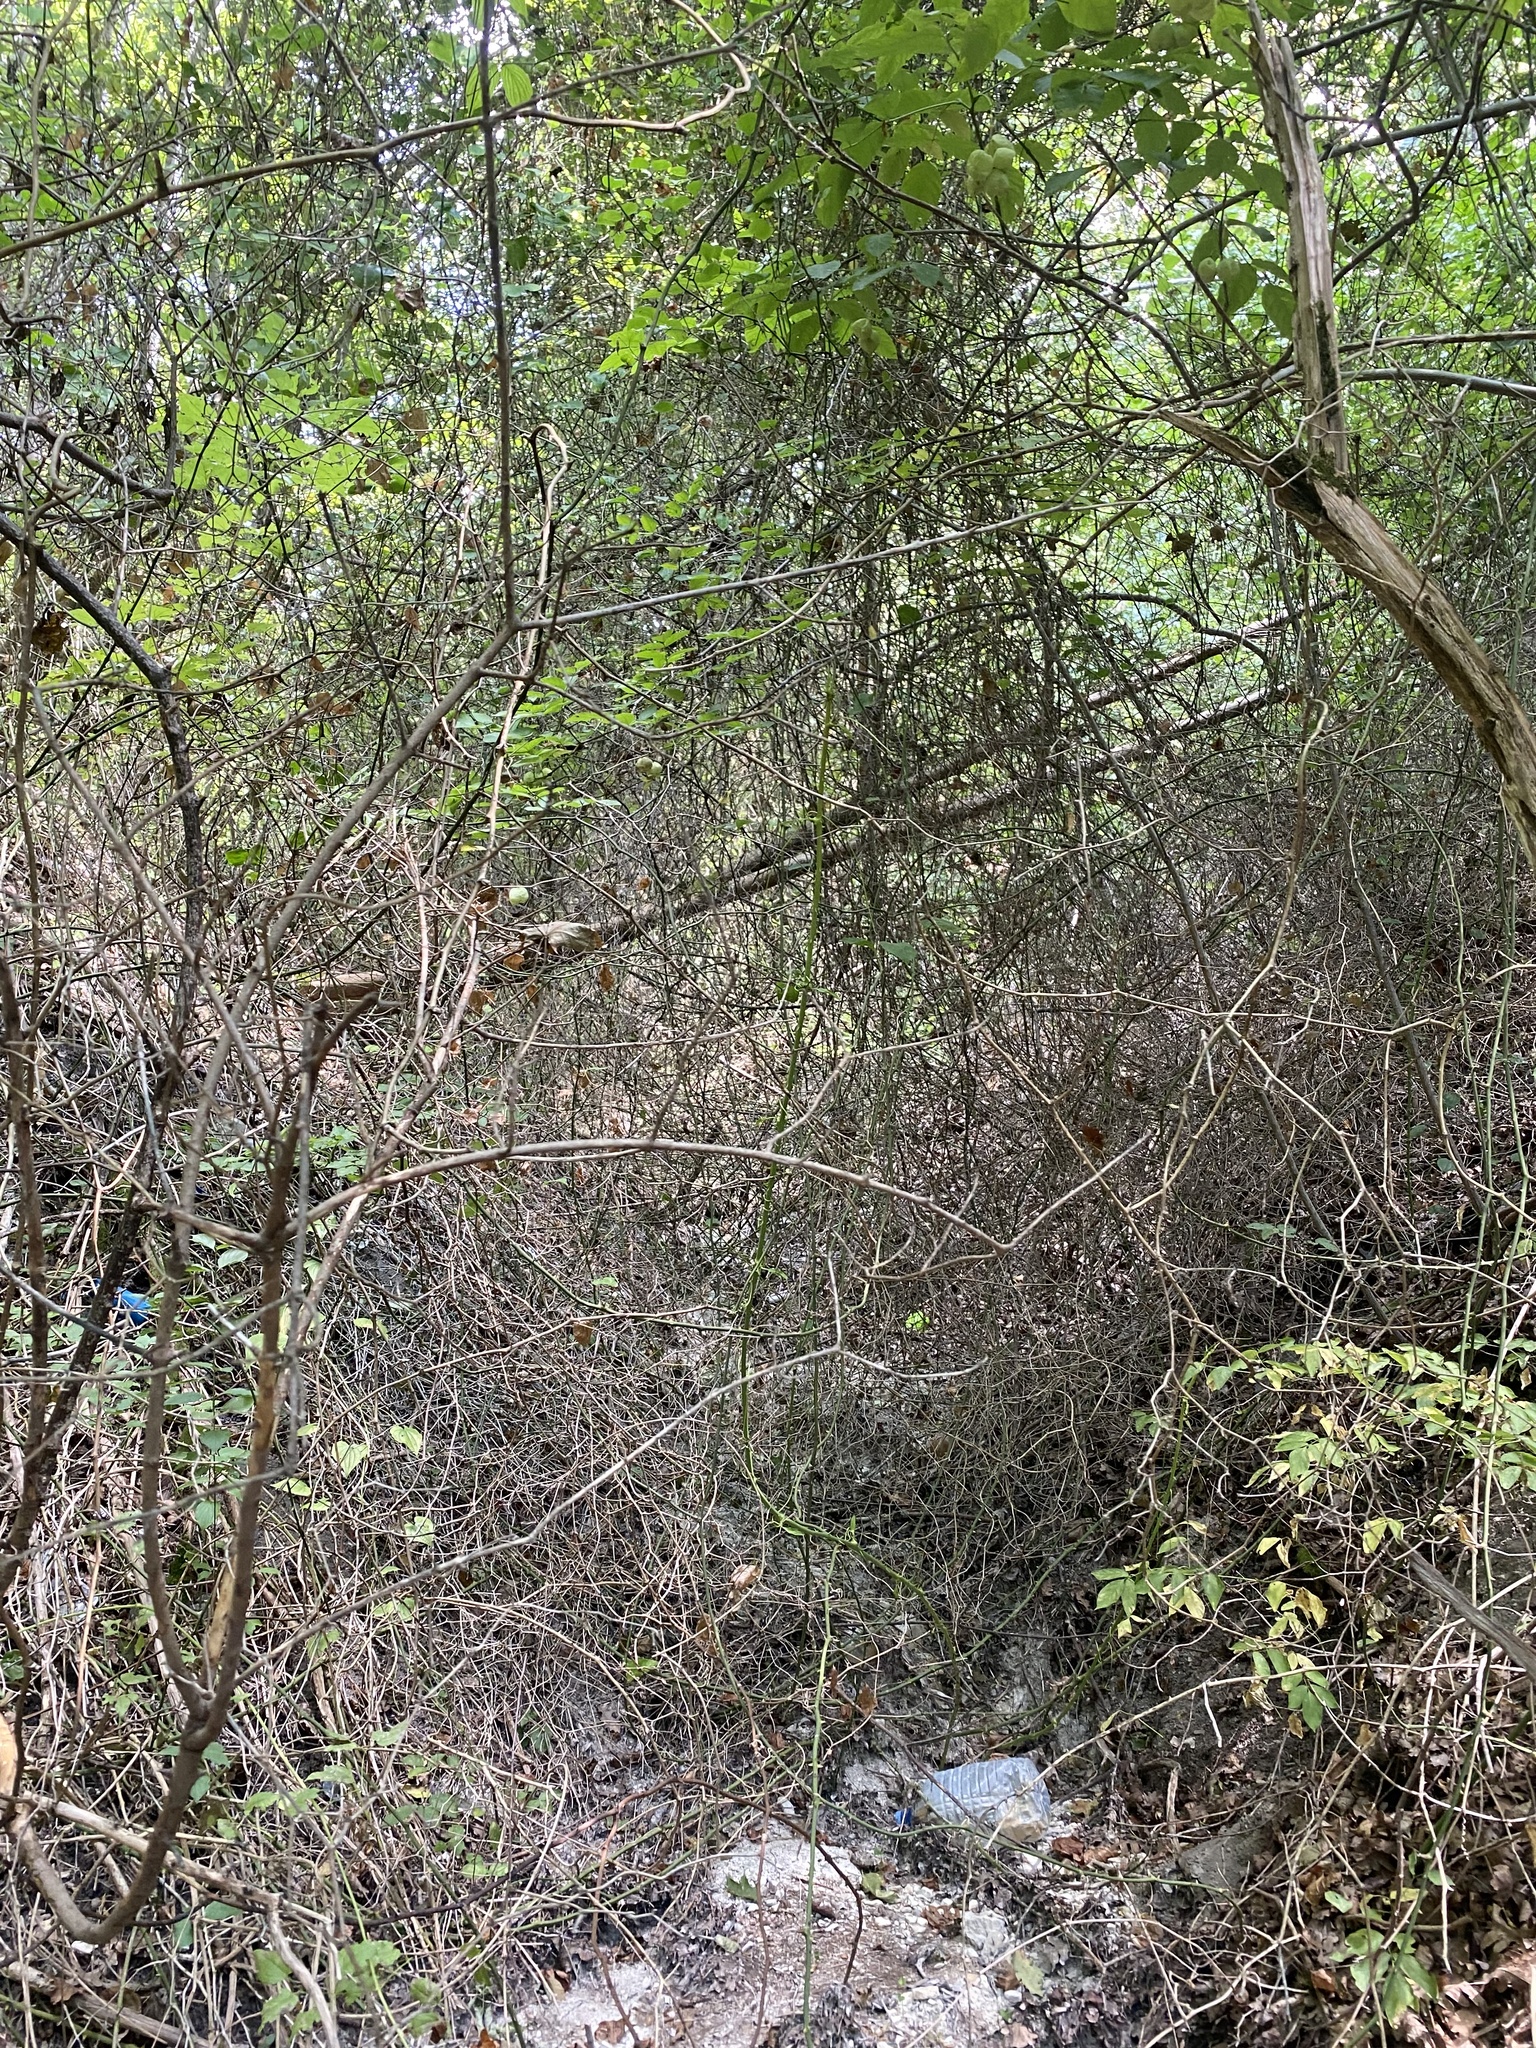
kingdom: Plantae
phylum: Tracheophyta
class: Liliopsida
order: Liliales
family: Smilacaceae
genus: Smilax
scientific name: Smilax excelsa
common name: Larger smilax
